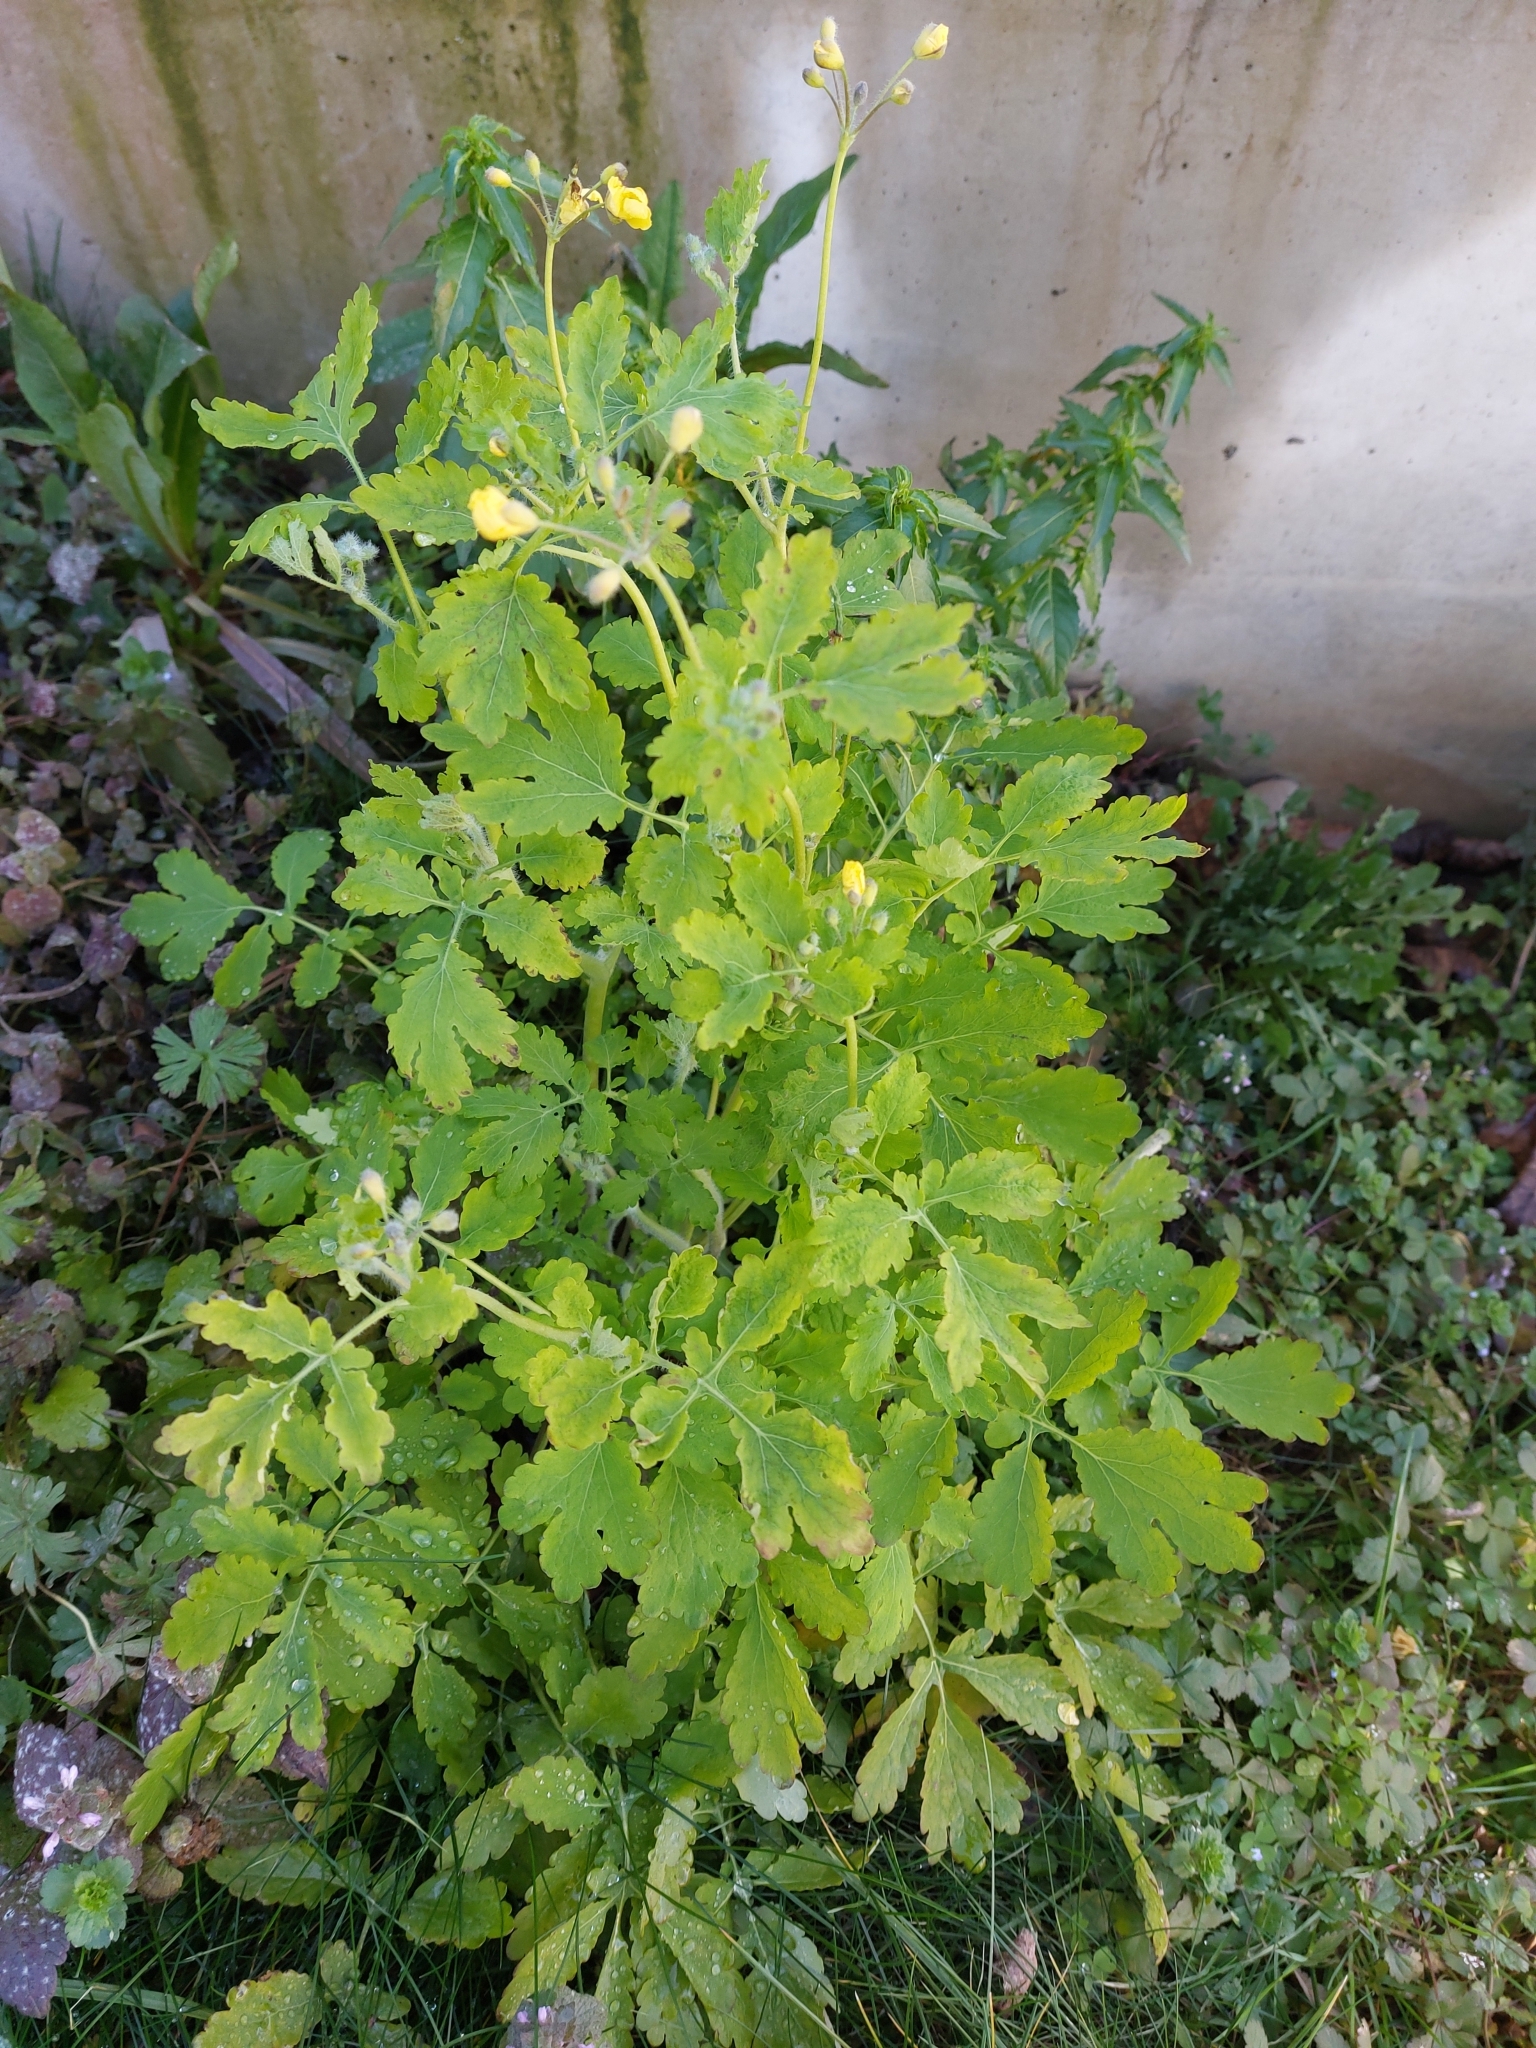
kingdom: Plantae
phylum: Tracheophyta
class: Magnoliopsida
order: Ranunculales
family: Papaveraceae
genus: Chelidonium
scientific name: Chelidonium majus
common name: Greater celandine
